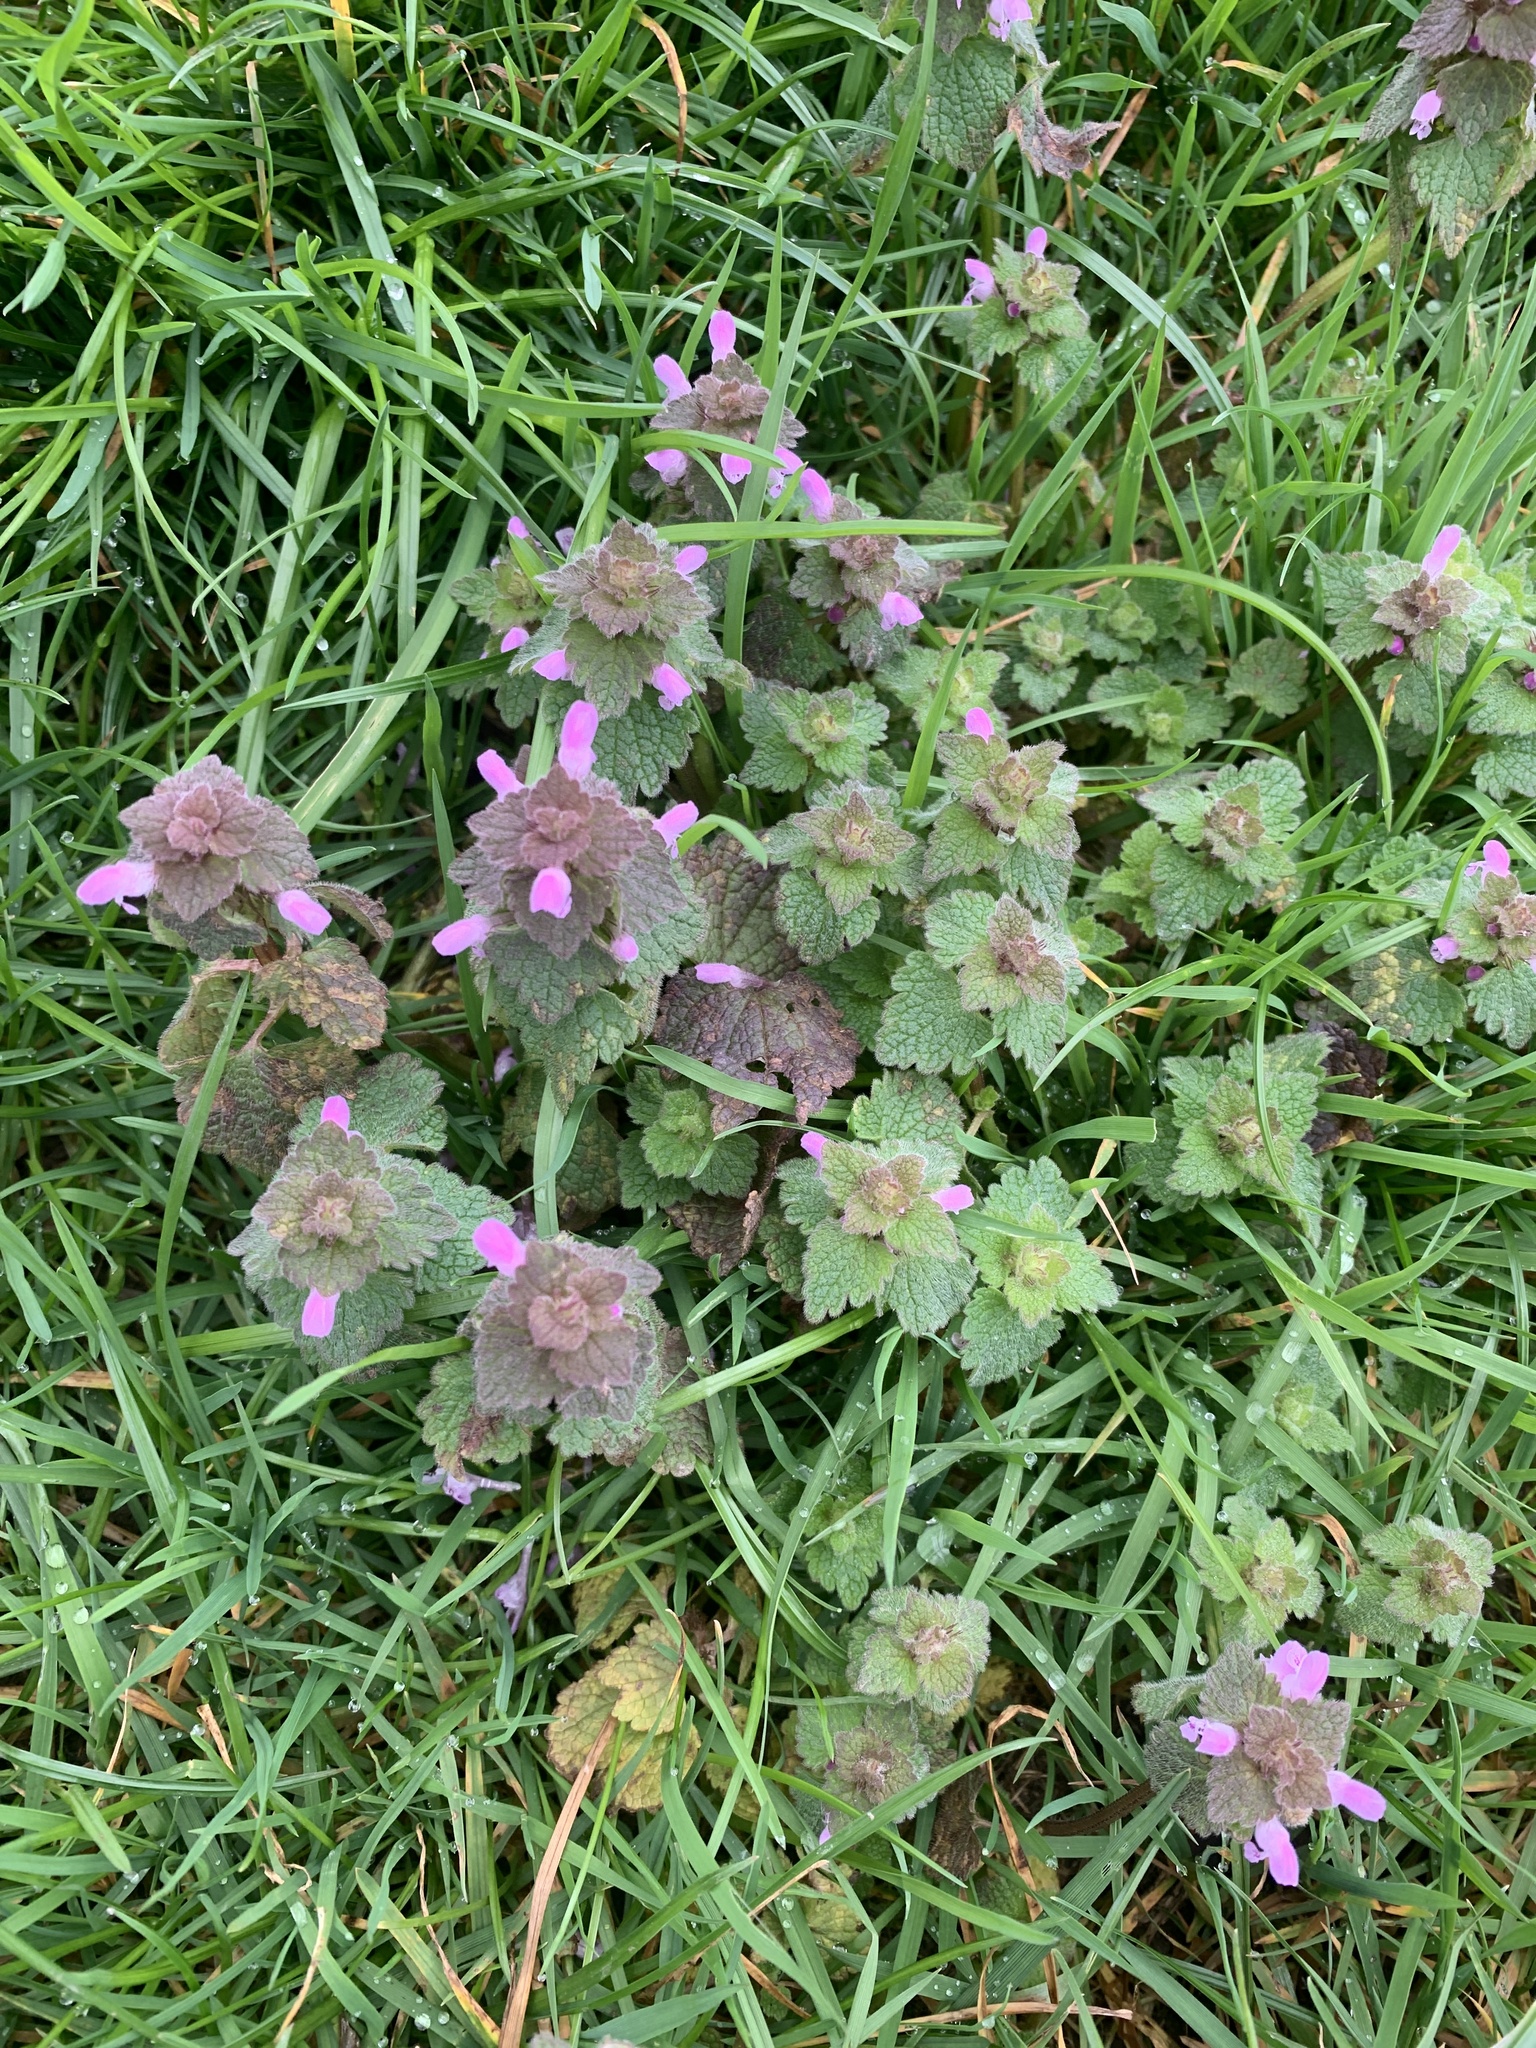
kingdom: Plantae
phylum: Tracheophyta
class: Magnoliopsida
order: Lamiales
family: Lamiaceae
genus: Lamium
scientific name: Lamium purpureum
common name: Red dead-nettle
